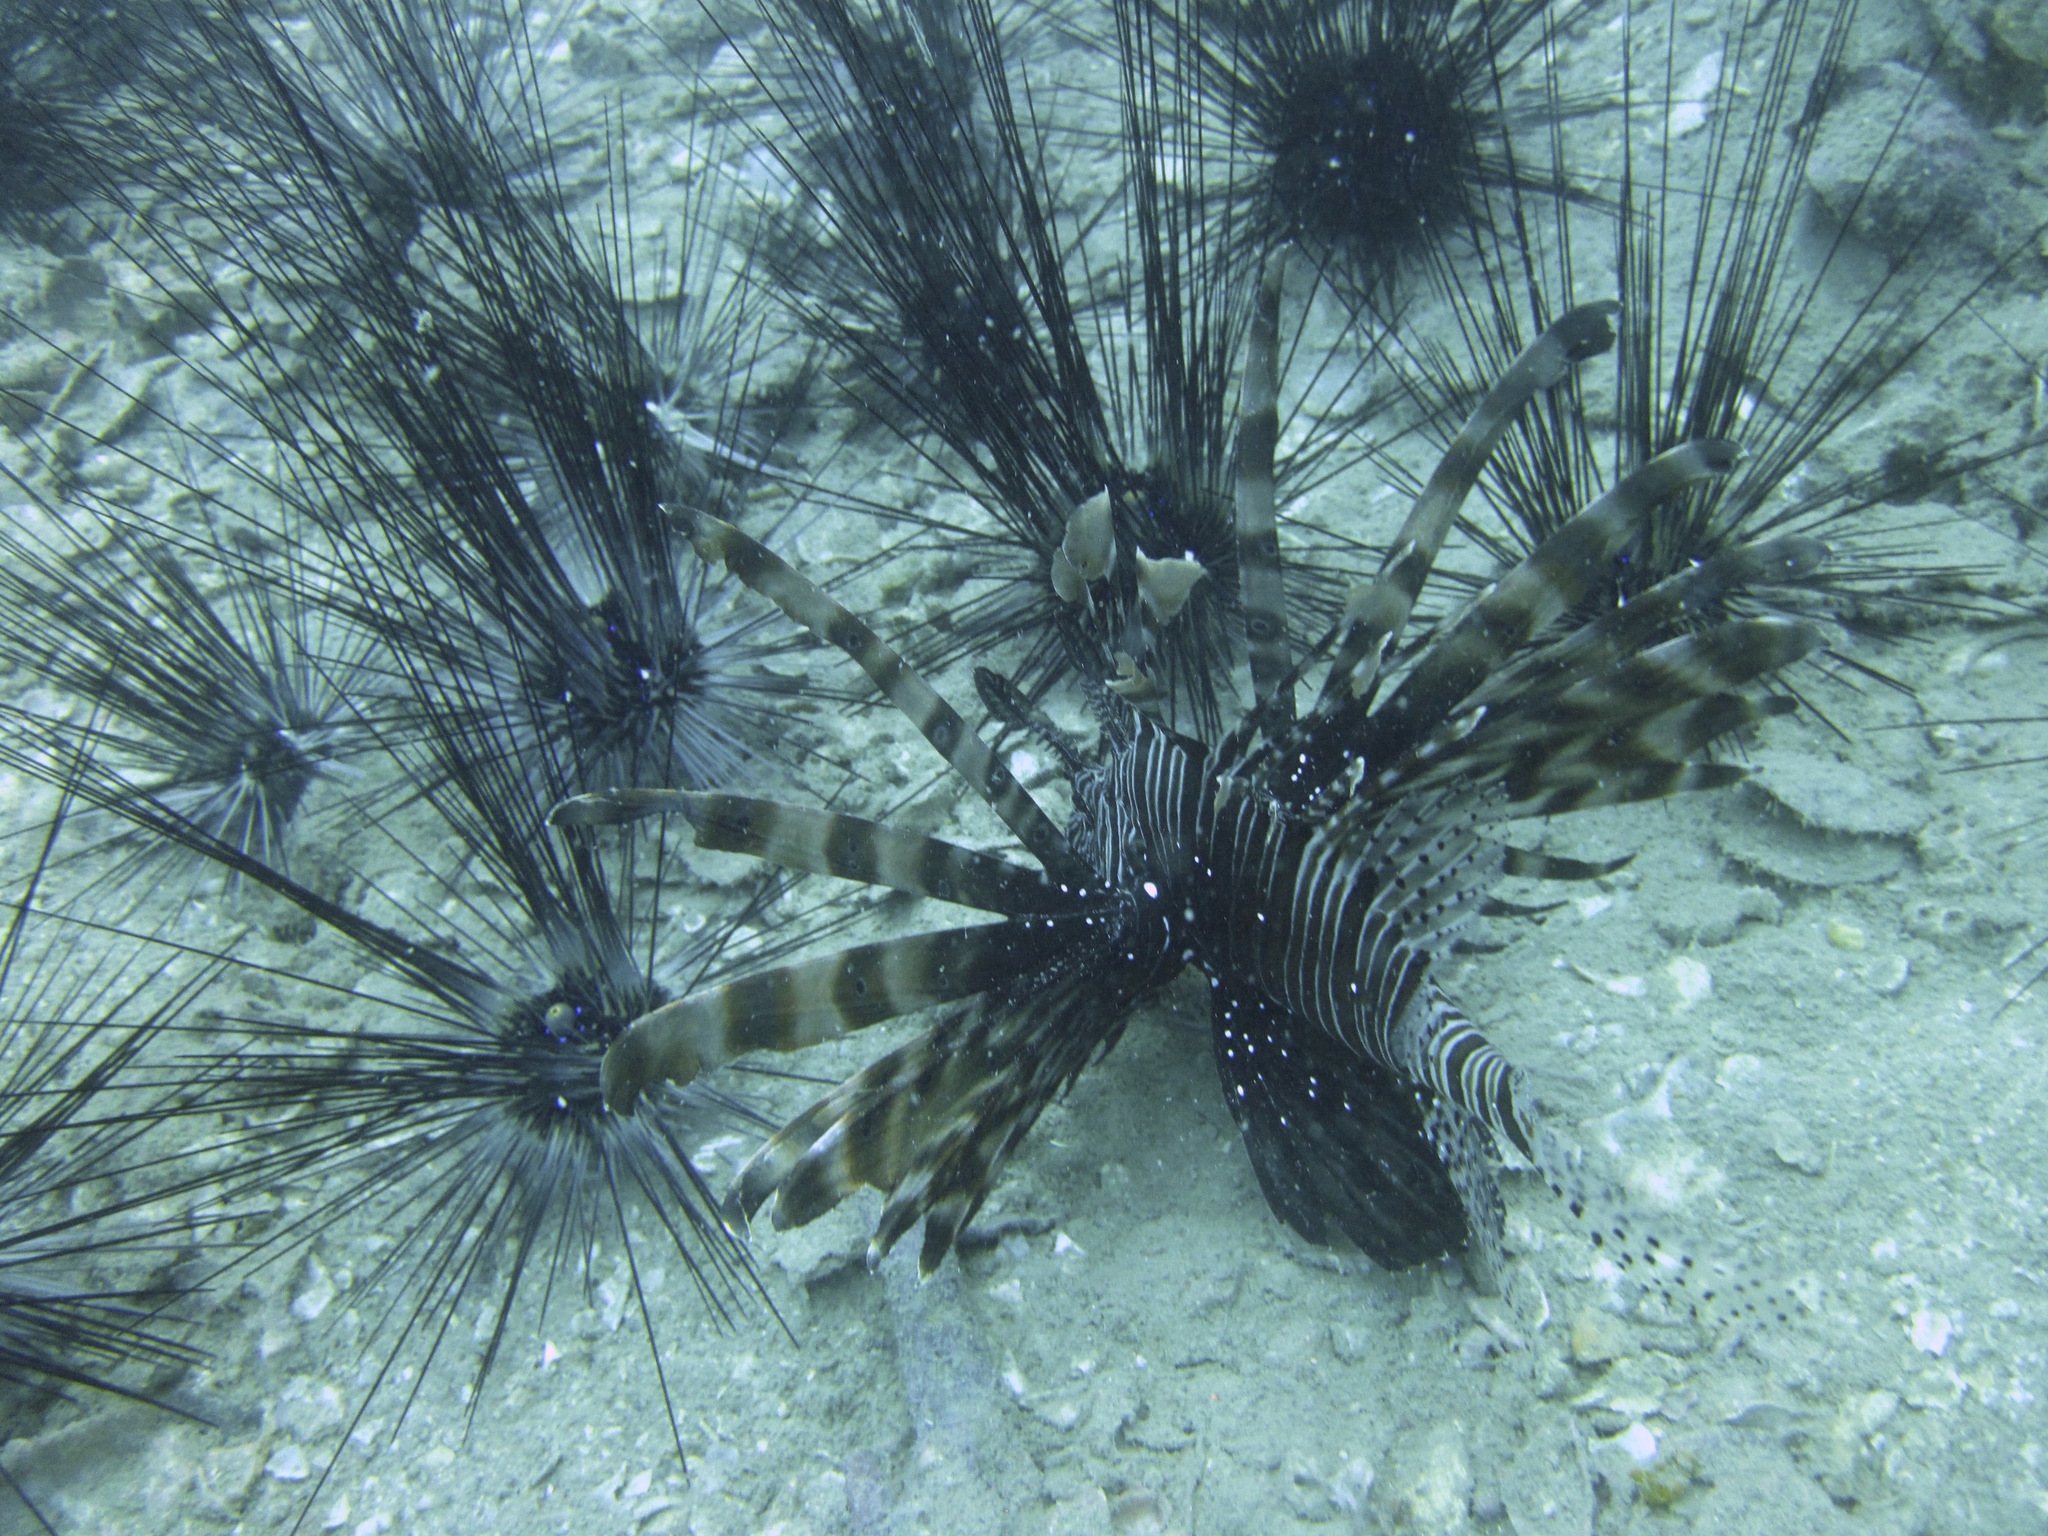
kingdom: Animalia
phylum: Chordata
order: Scorpaeniformes
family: Scorpaenidae
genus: Pterois
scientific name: Pterois miles
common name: Devil firefish
